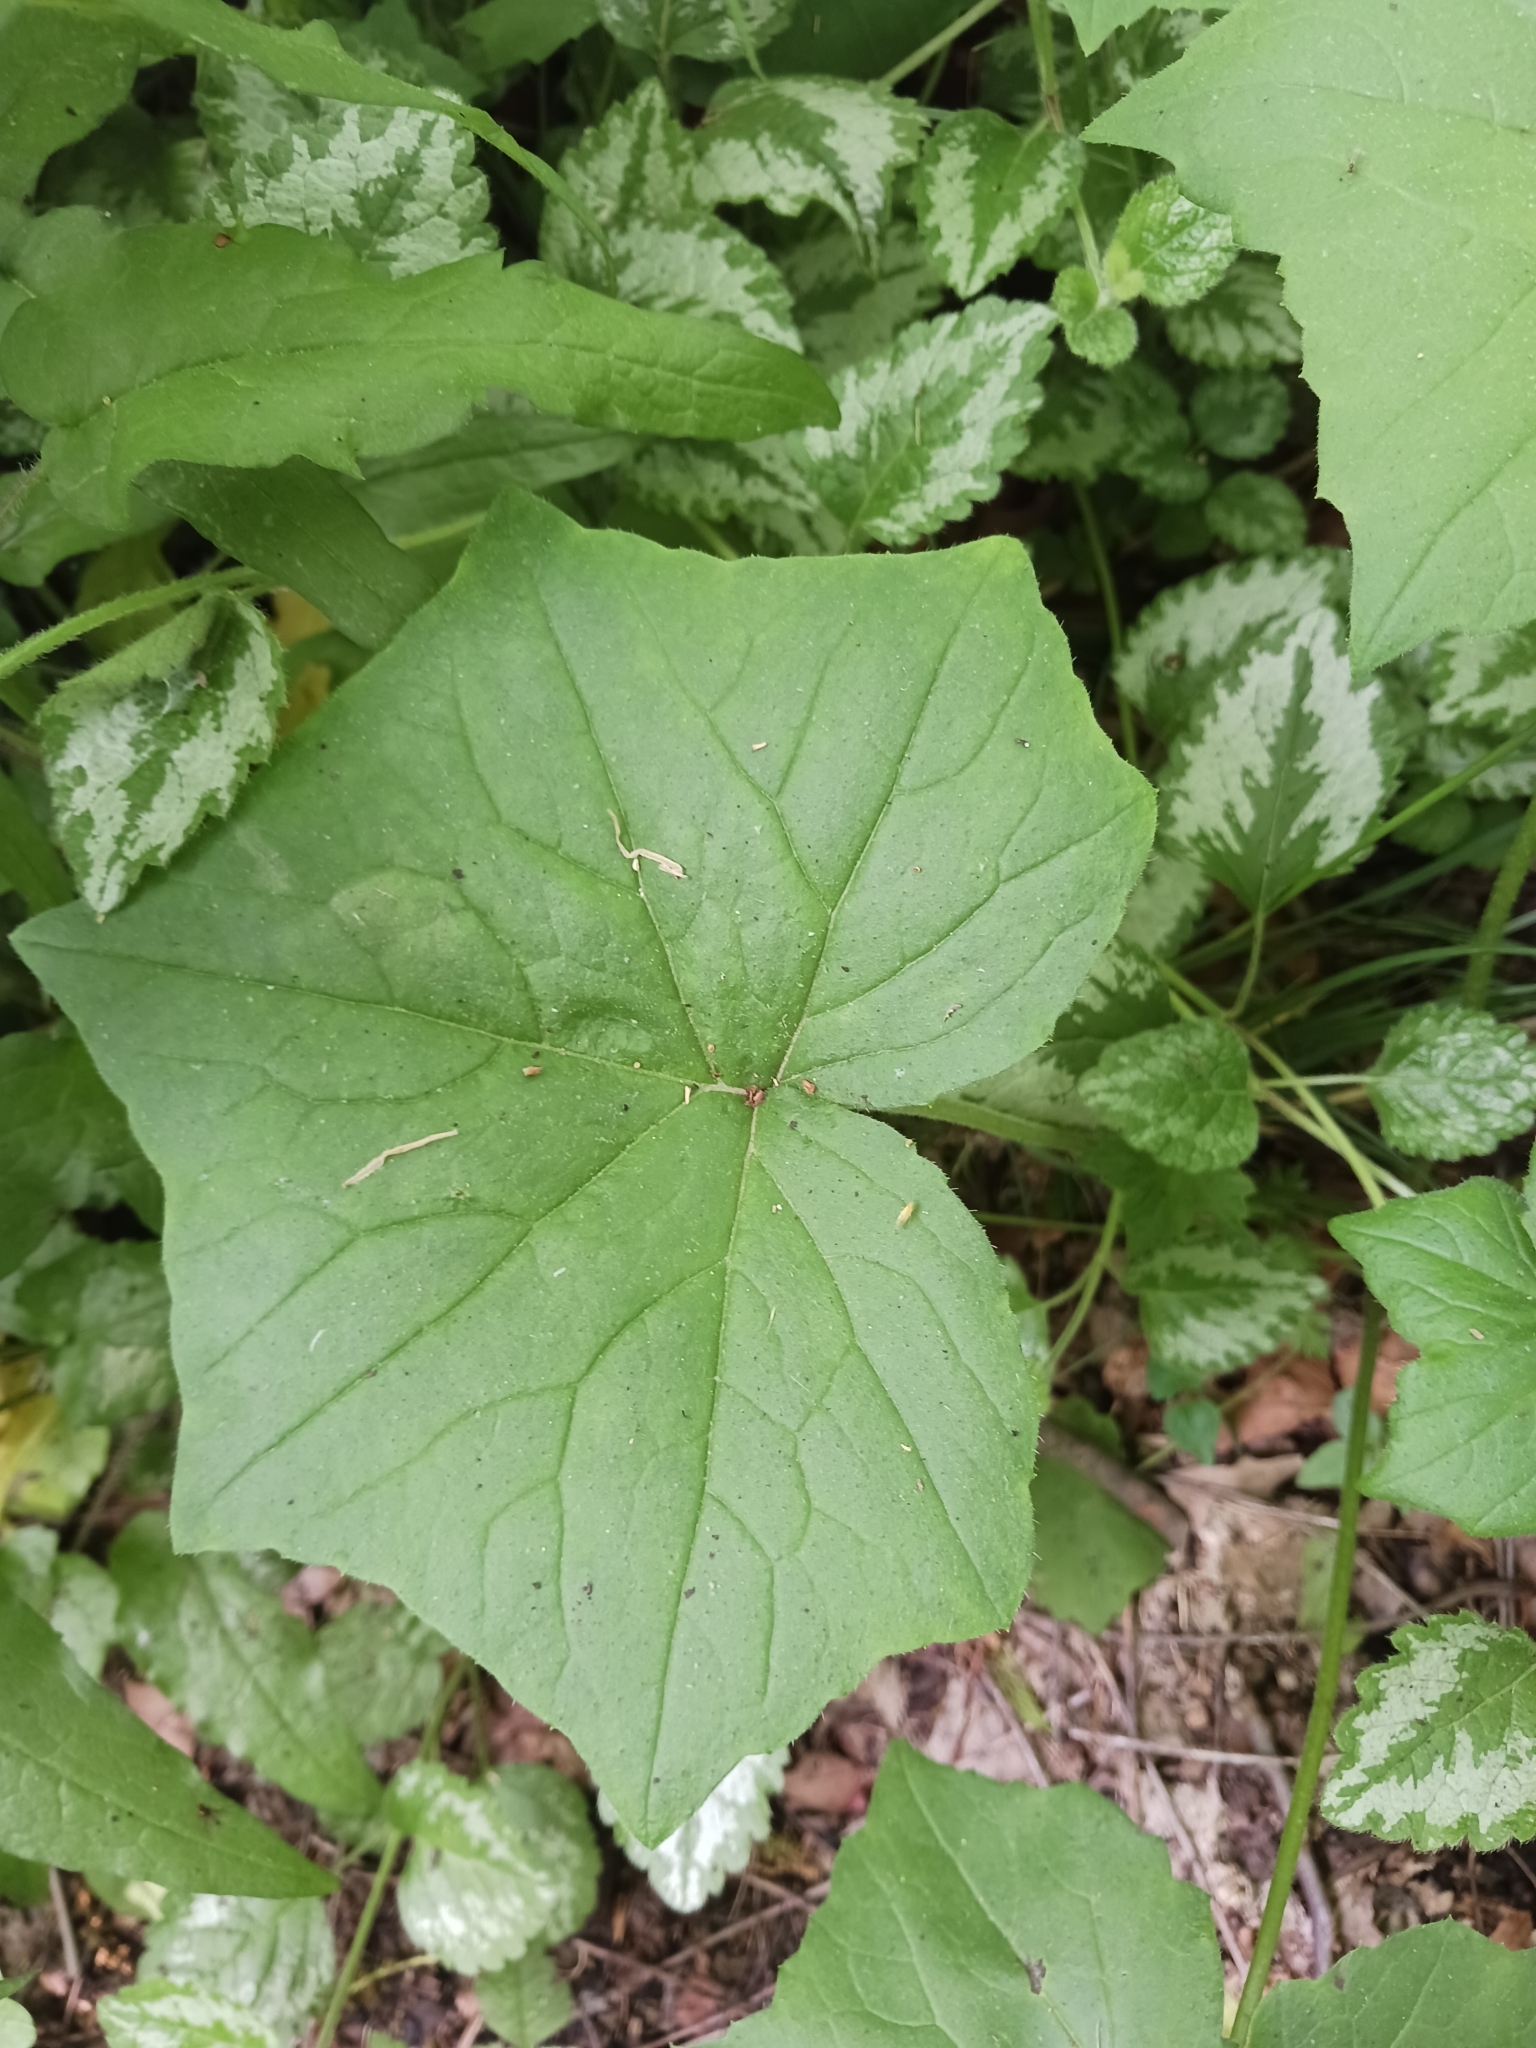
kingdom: Plantae
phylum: Tracheophyta
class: Magnoliopsida
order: Boraginales
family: Hydrophyllaceae
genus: Hydrophyllum
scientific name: Hydrophyllum appendiculatum
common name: Appendaged waterleaf
